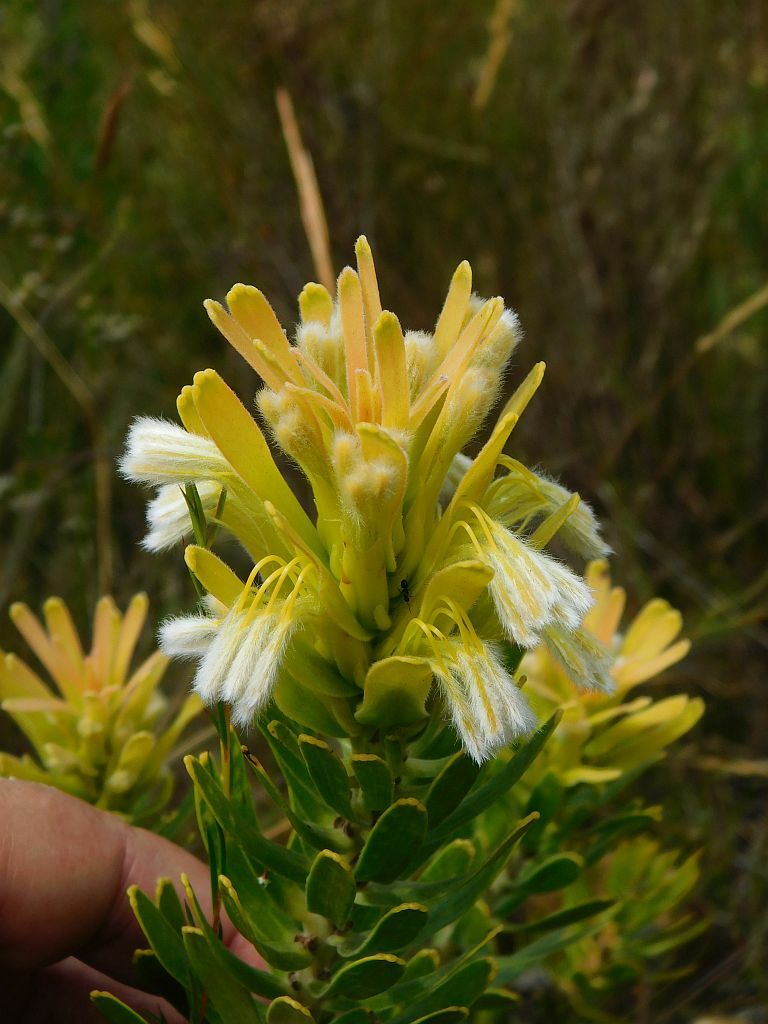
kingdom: Plantae
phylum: Tracheophyta
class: Magnoliopsida
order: Proteales
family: Proteaceae
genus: Mimetes
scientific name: Mimetes cucullatus
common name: Common pagoda
